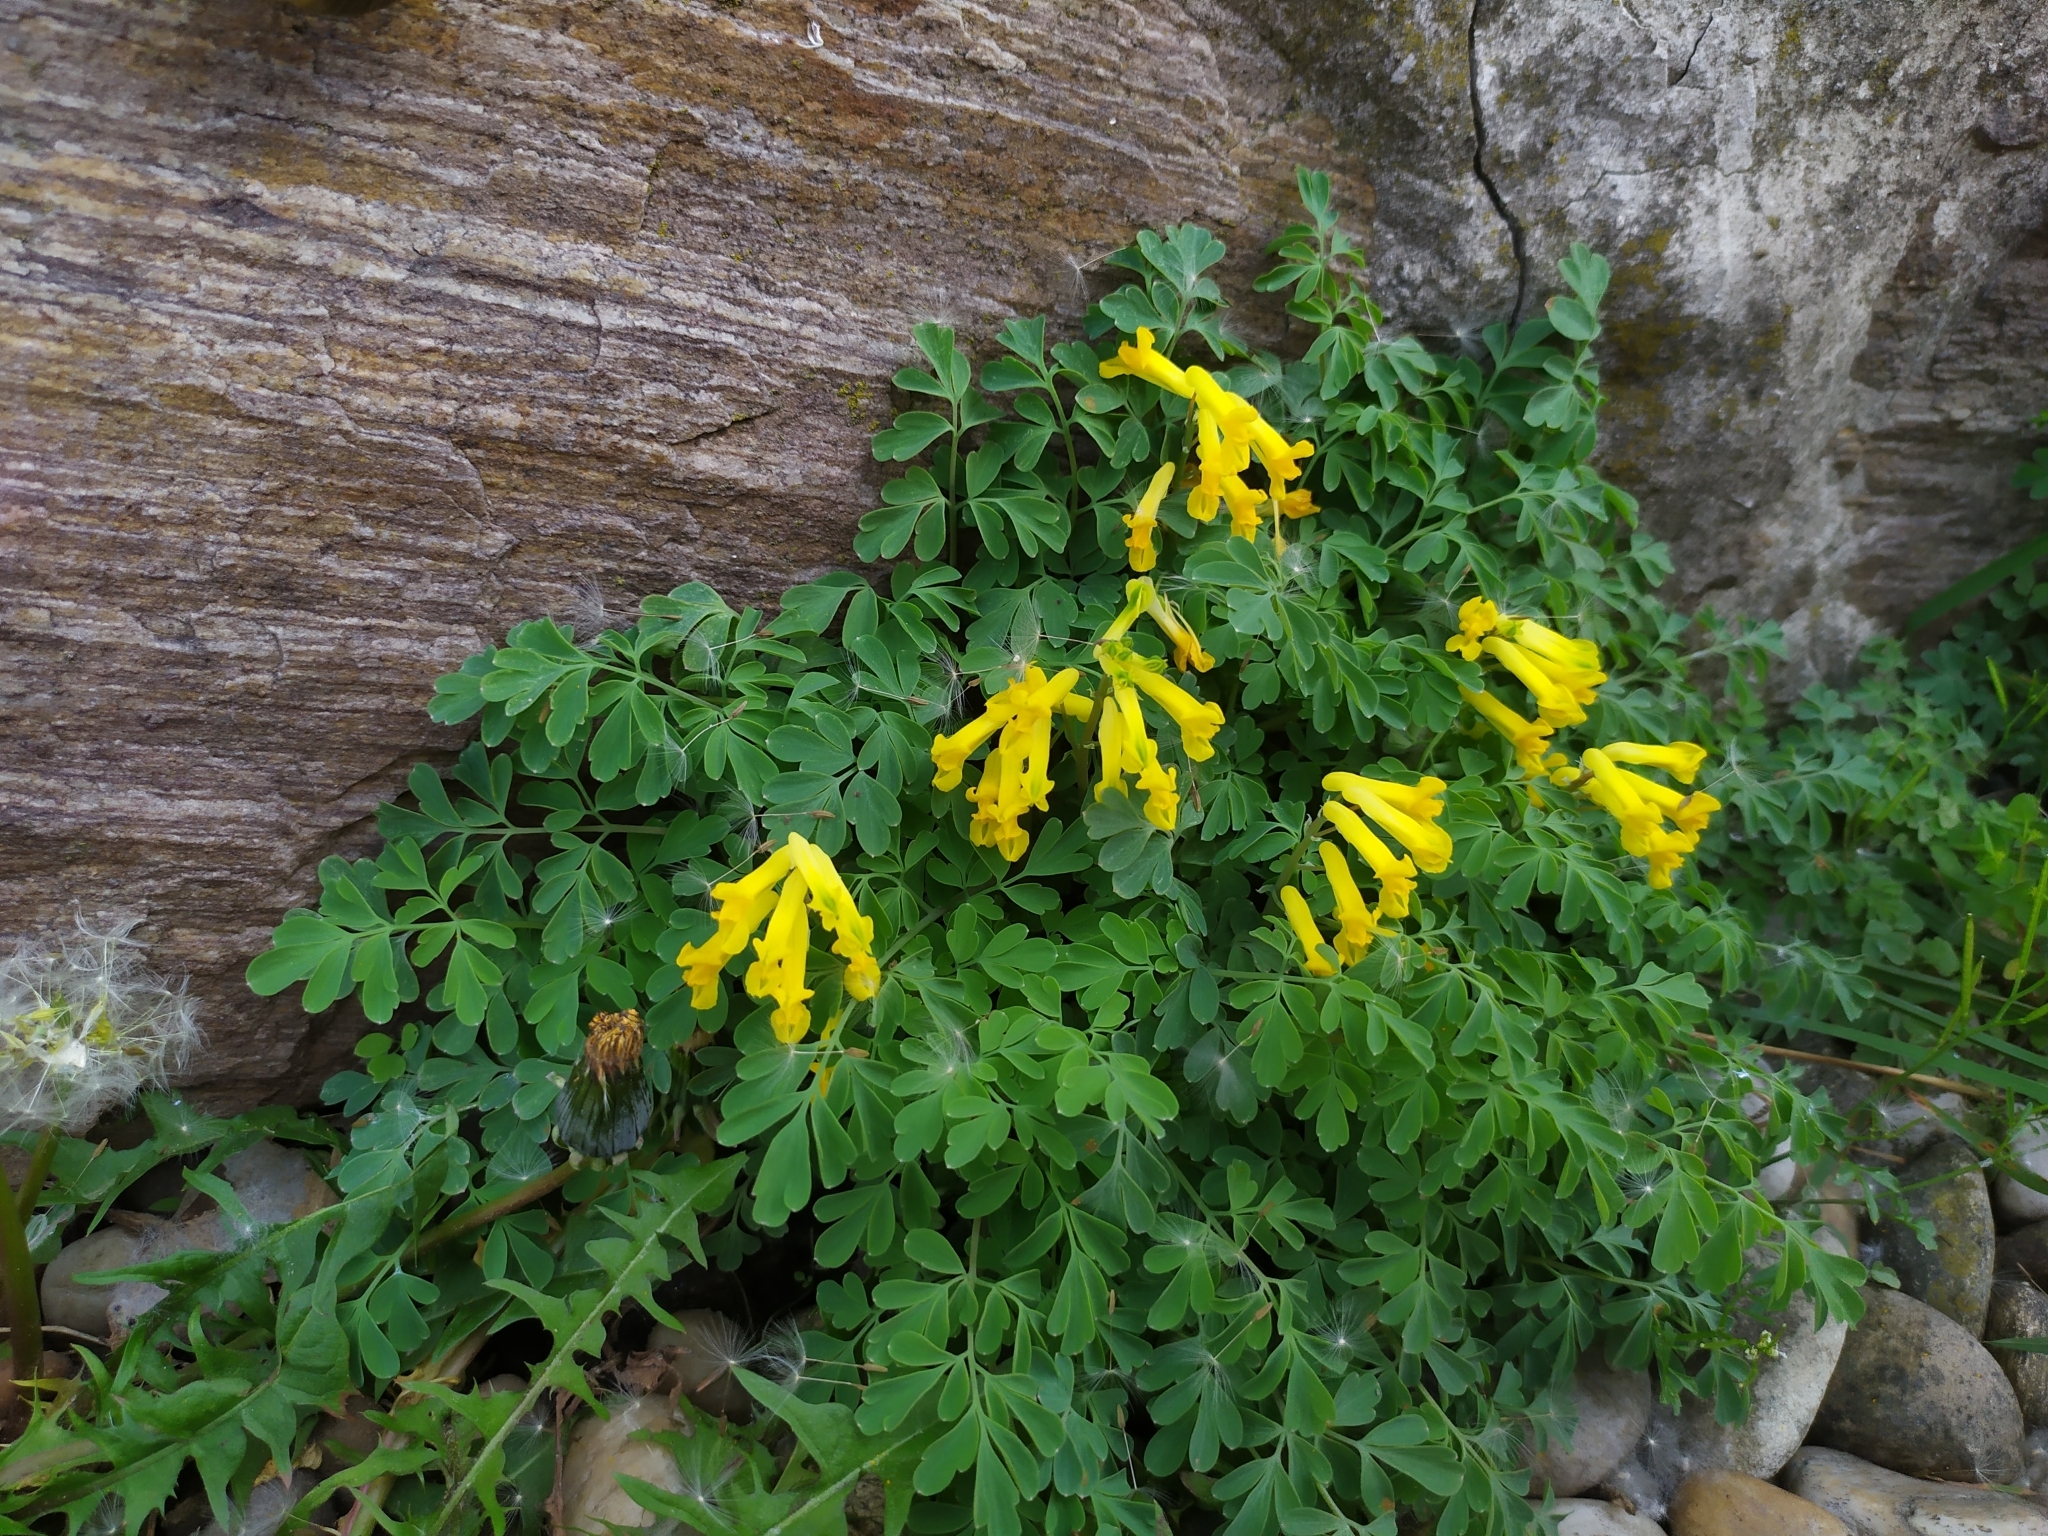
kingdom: Plantae
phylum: Tracheophyta
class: Magnoliopsida
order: Ranunculales
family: Papaveraceae
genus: Pseudofumaria
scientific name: Pseudofumaria lutea
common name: Yellow corydalis
